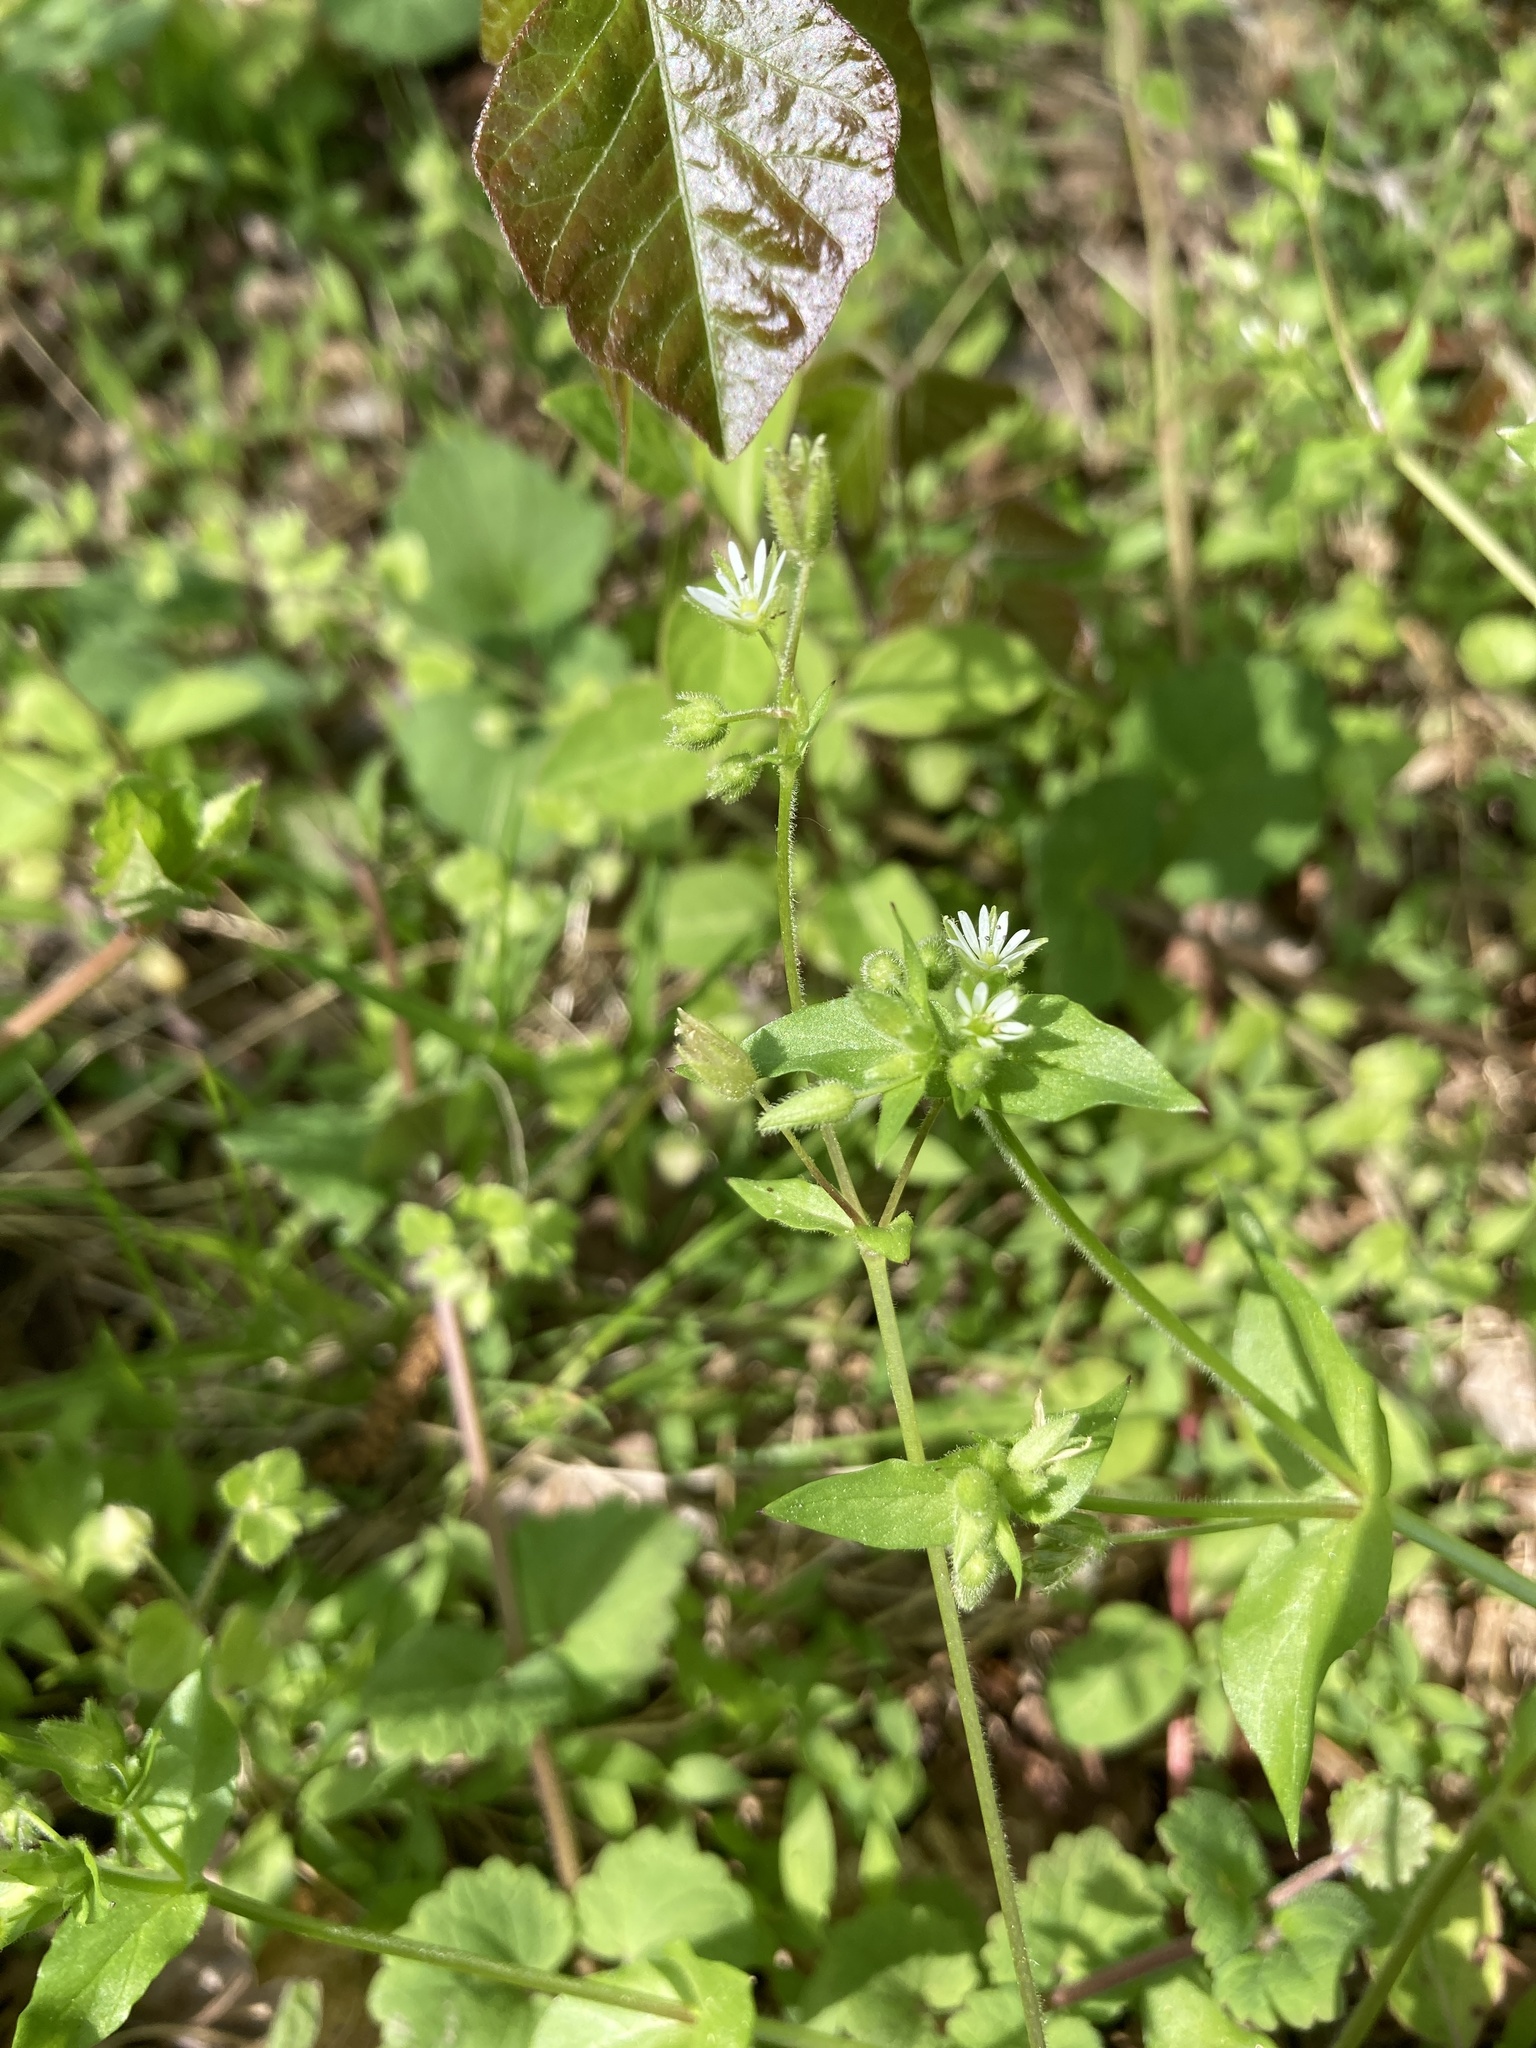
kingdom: Plantae
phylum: Tracheophyta
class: Magnoliopsida
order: Caryophyllales
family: Caryophyllaceae
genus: Stellaria
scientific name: Stellaria media
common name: Common chickweed
